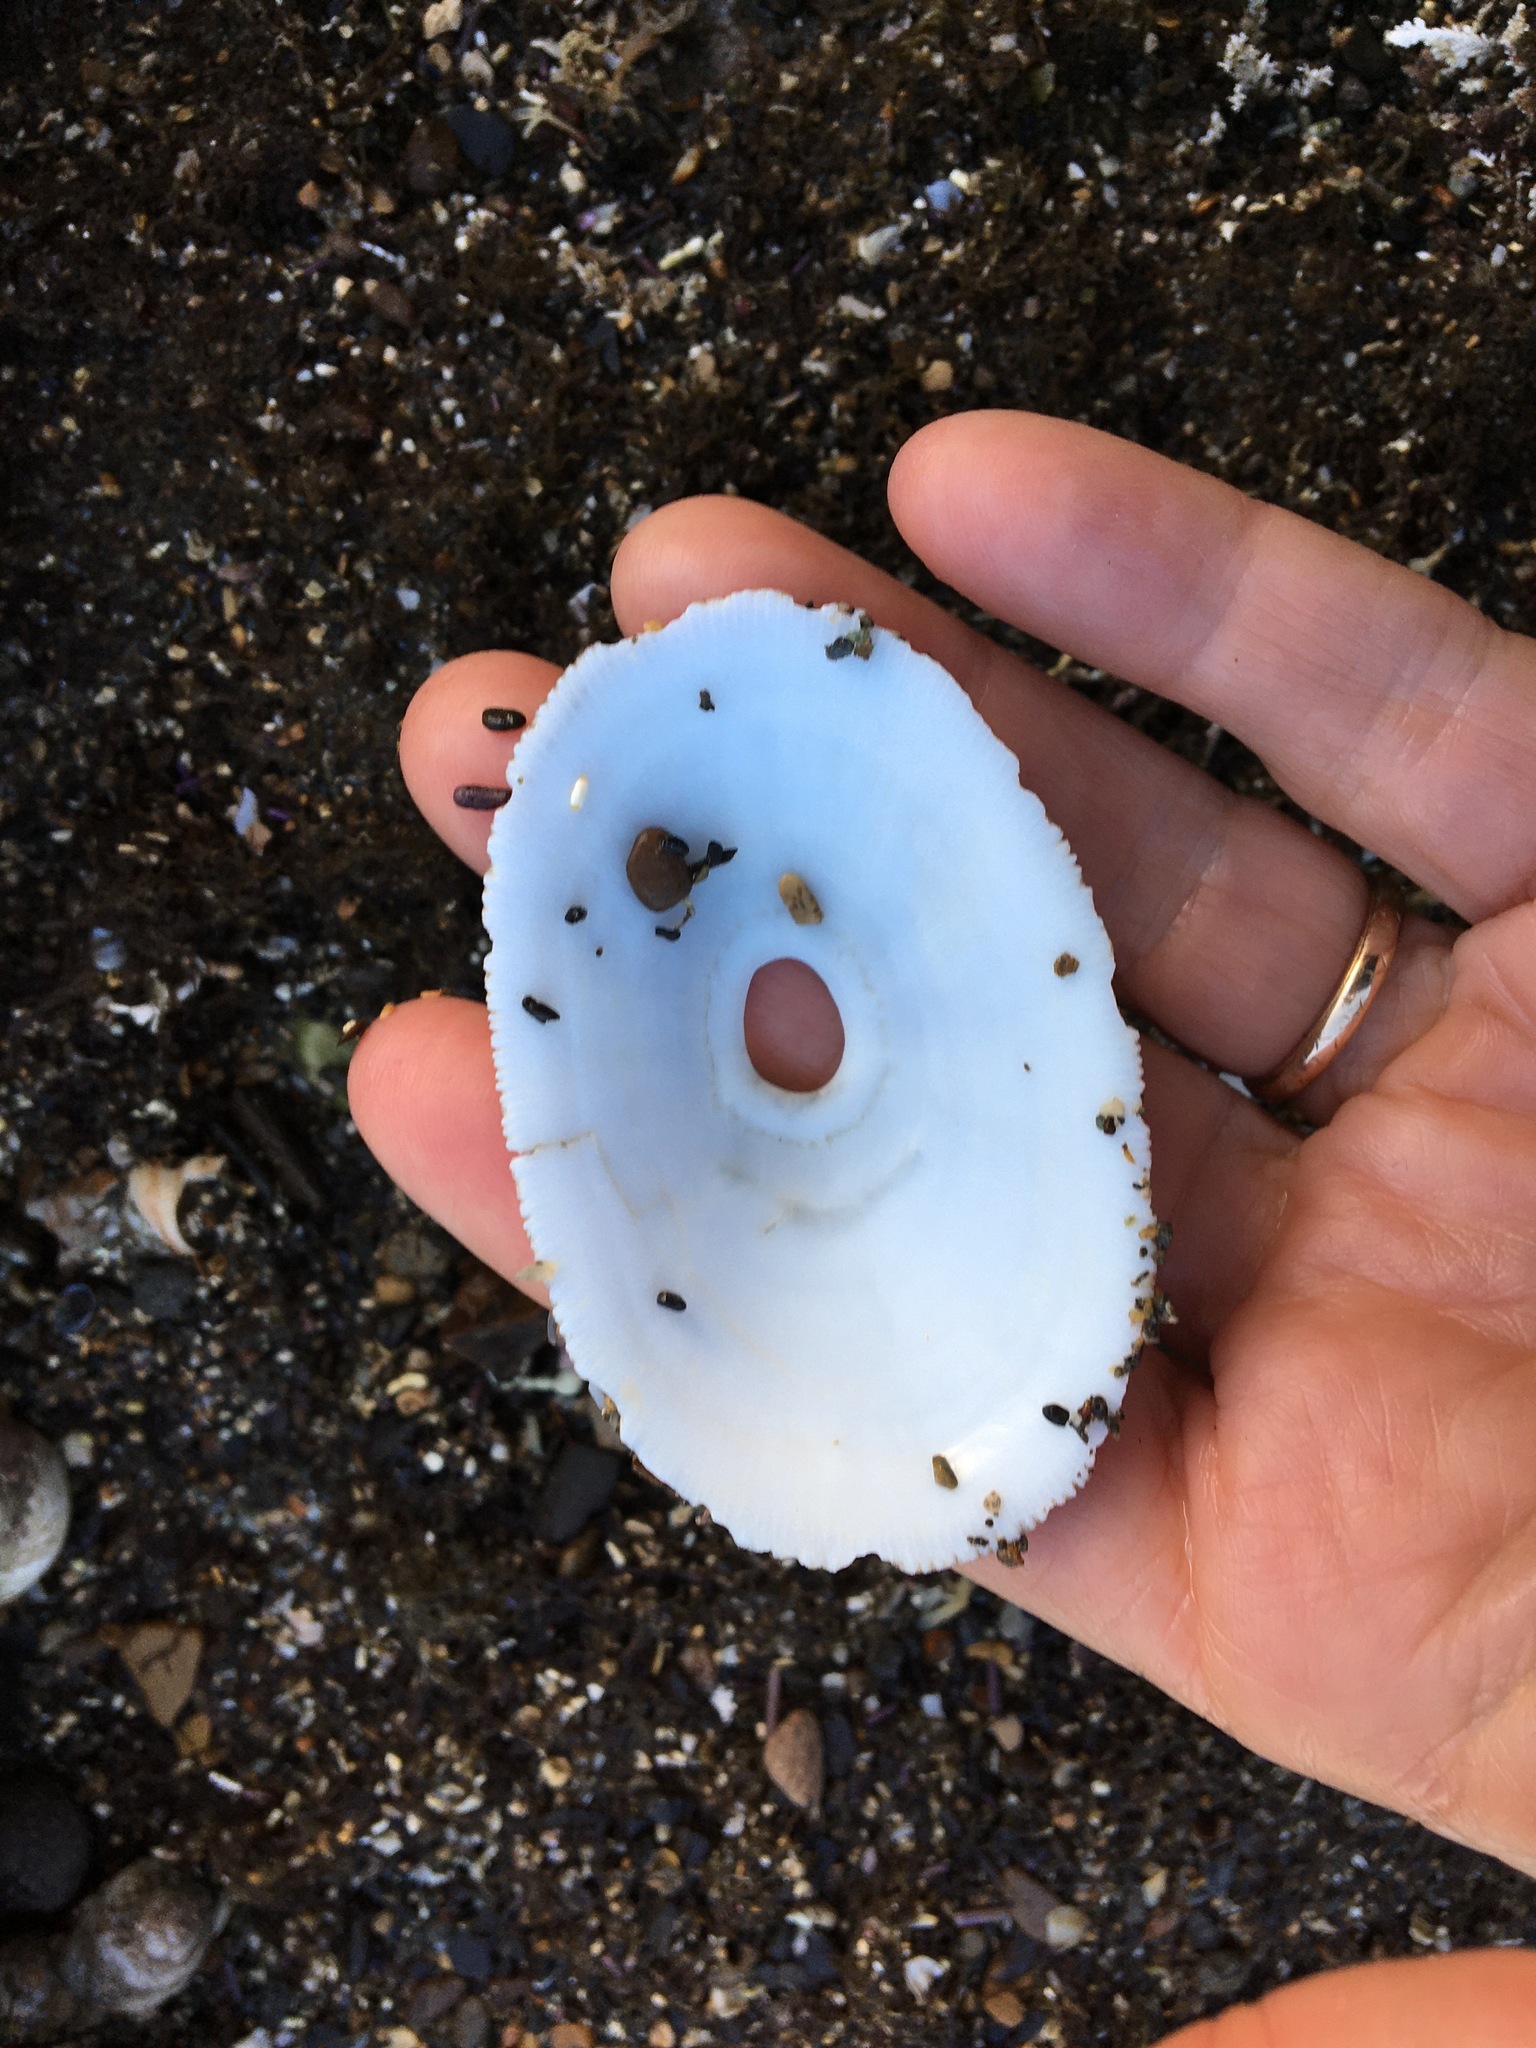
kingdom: Animalia
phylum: Mollusca
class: Gastropoda
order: Lepetellida
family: Fissurellidae
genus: Megathura
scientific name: Megathura crenulata
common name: Giant keyhole limpet
